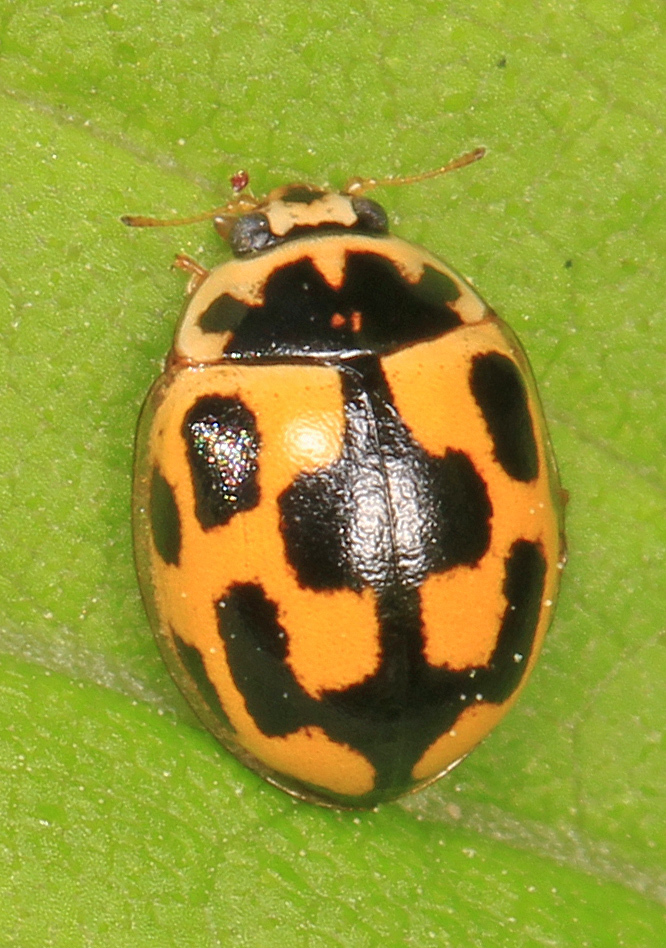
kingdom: Animalia
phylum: Arthropoda
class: Insecta
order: Coleoptera
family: Coccinellidae
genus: Propylaea
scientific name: Propylaea quatuordecimpunctata
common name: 14-spotted ladybird beetle
